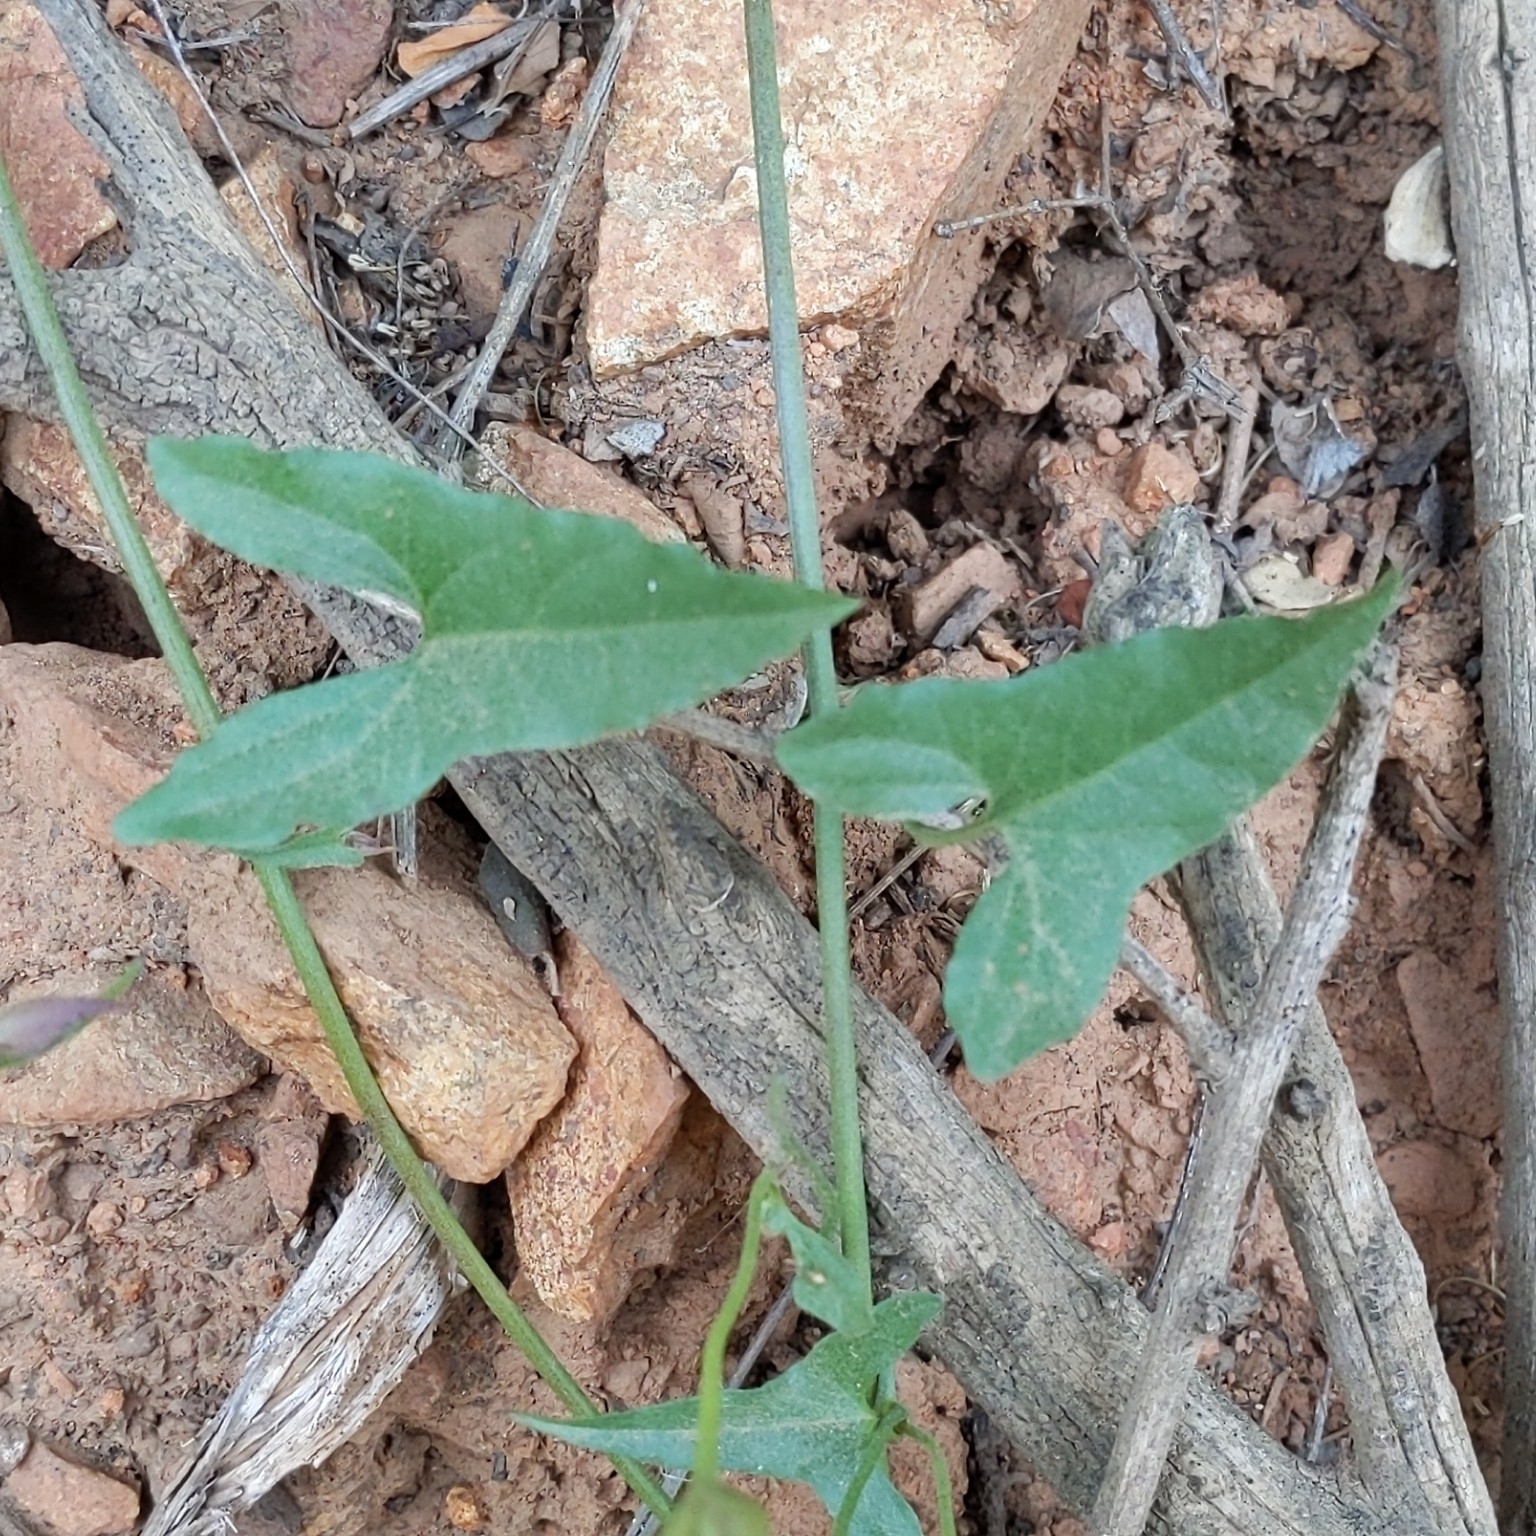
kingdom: Plantae
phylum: Tracheophyta
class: Magnoliopsida
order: Solanales
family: Convolvulaceae
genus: Calystegia
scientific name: Calystegia macrostegia
